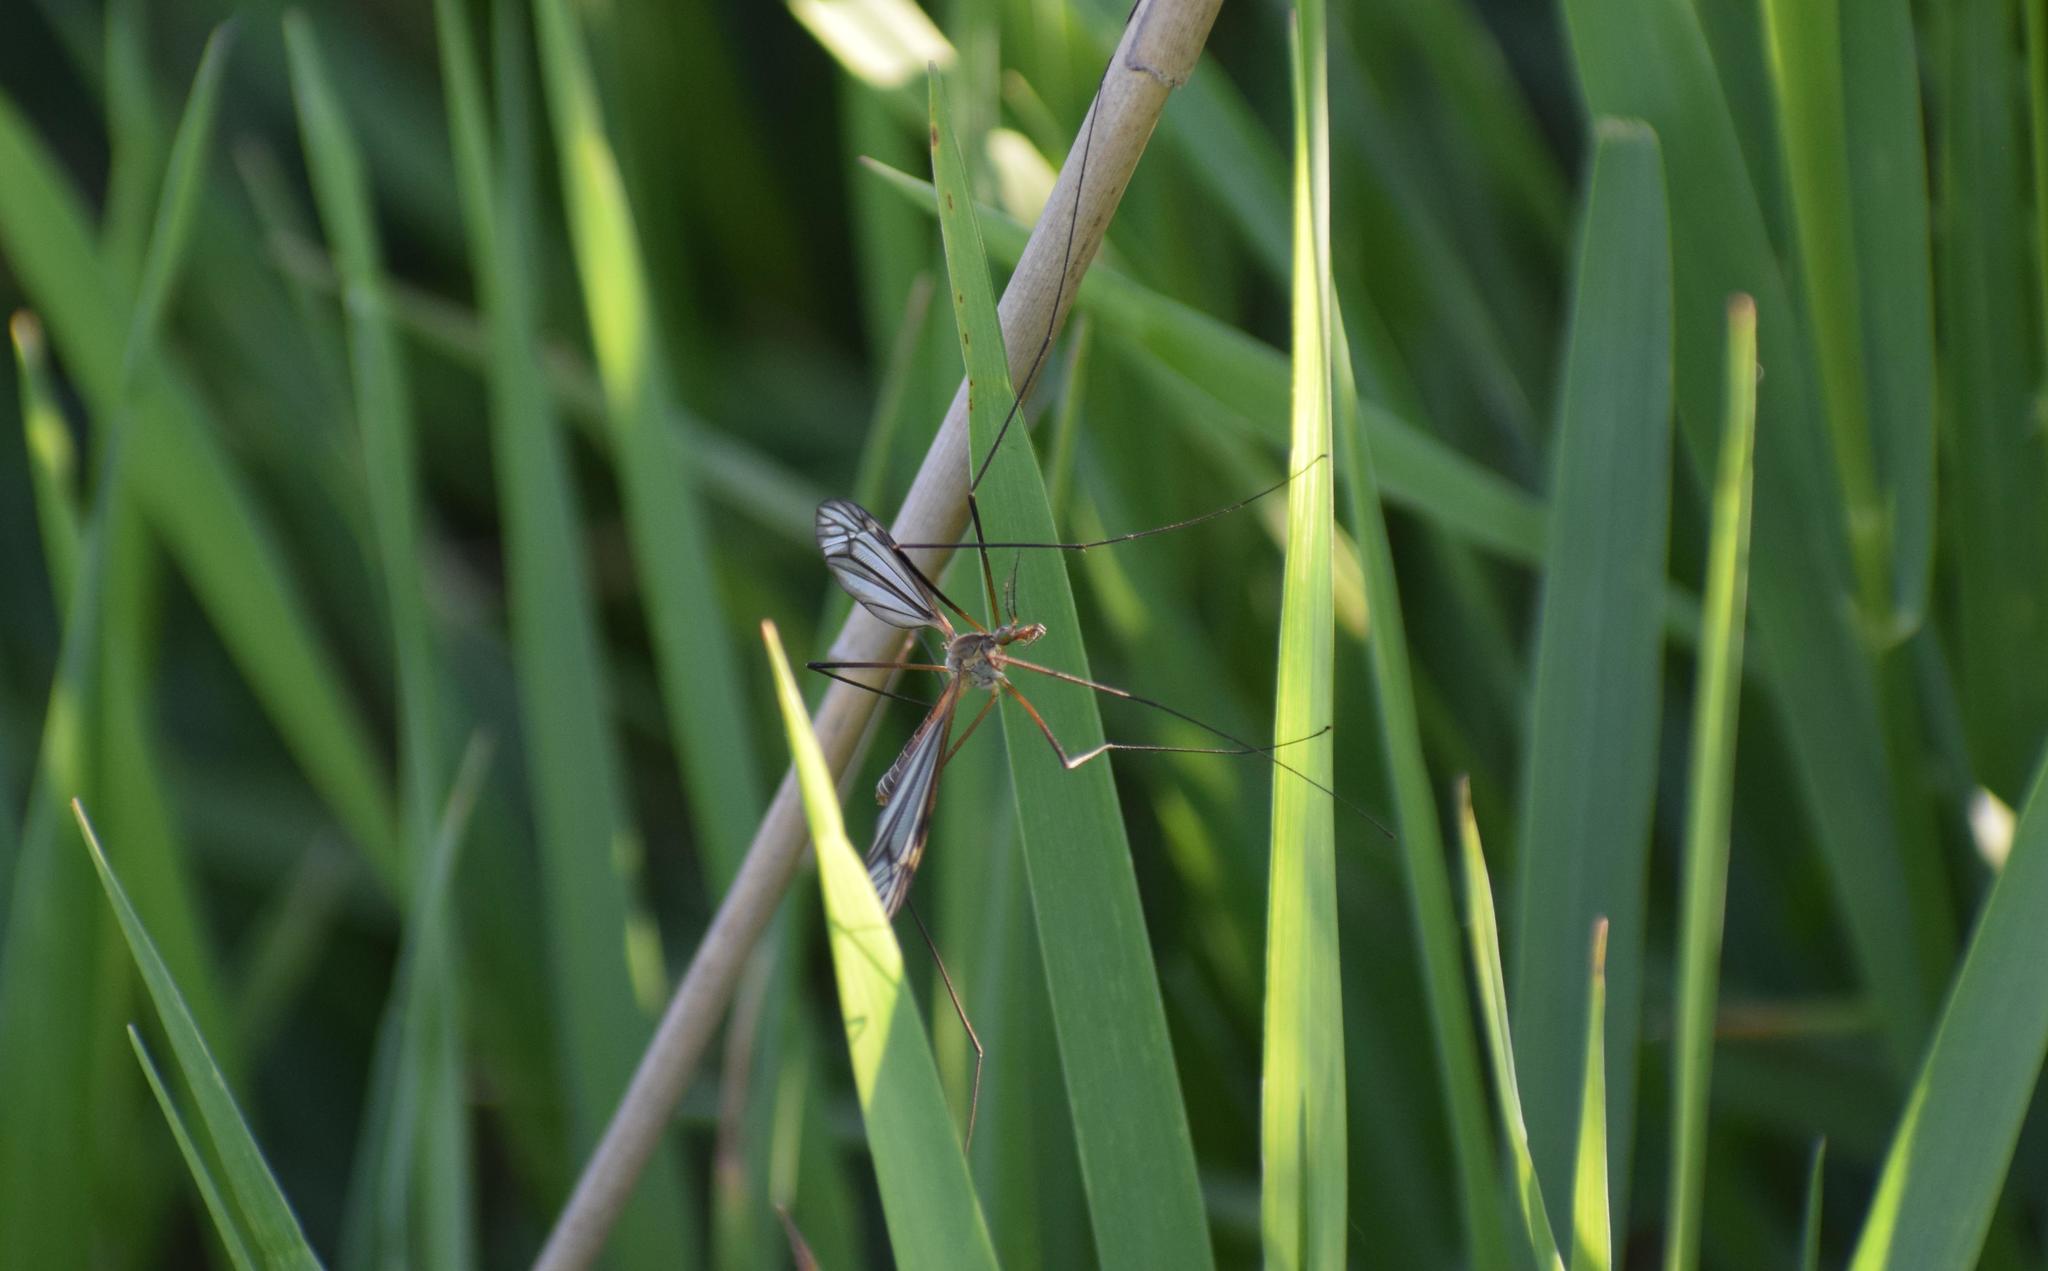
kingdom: Animalia
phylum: Arthropoda
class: Insecta
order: Diptera
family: Tipulidae
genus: Tipula
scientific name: Tipula paludosa
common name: European cranefly
